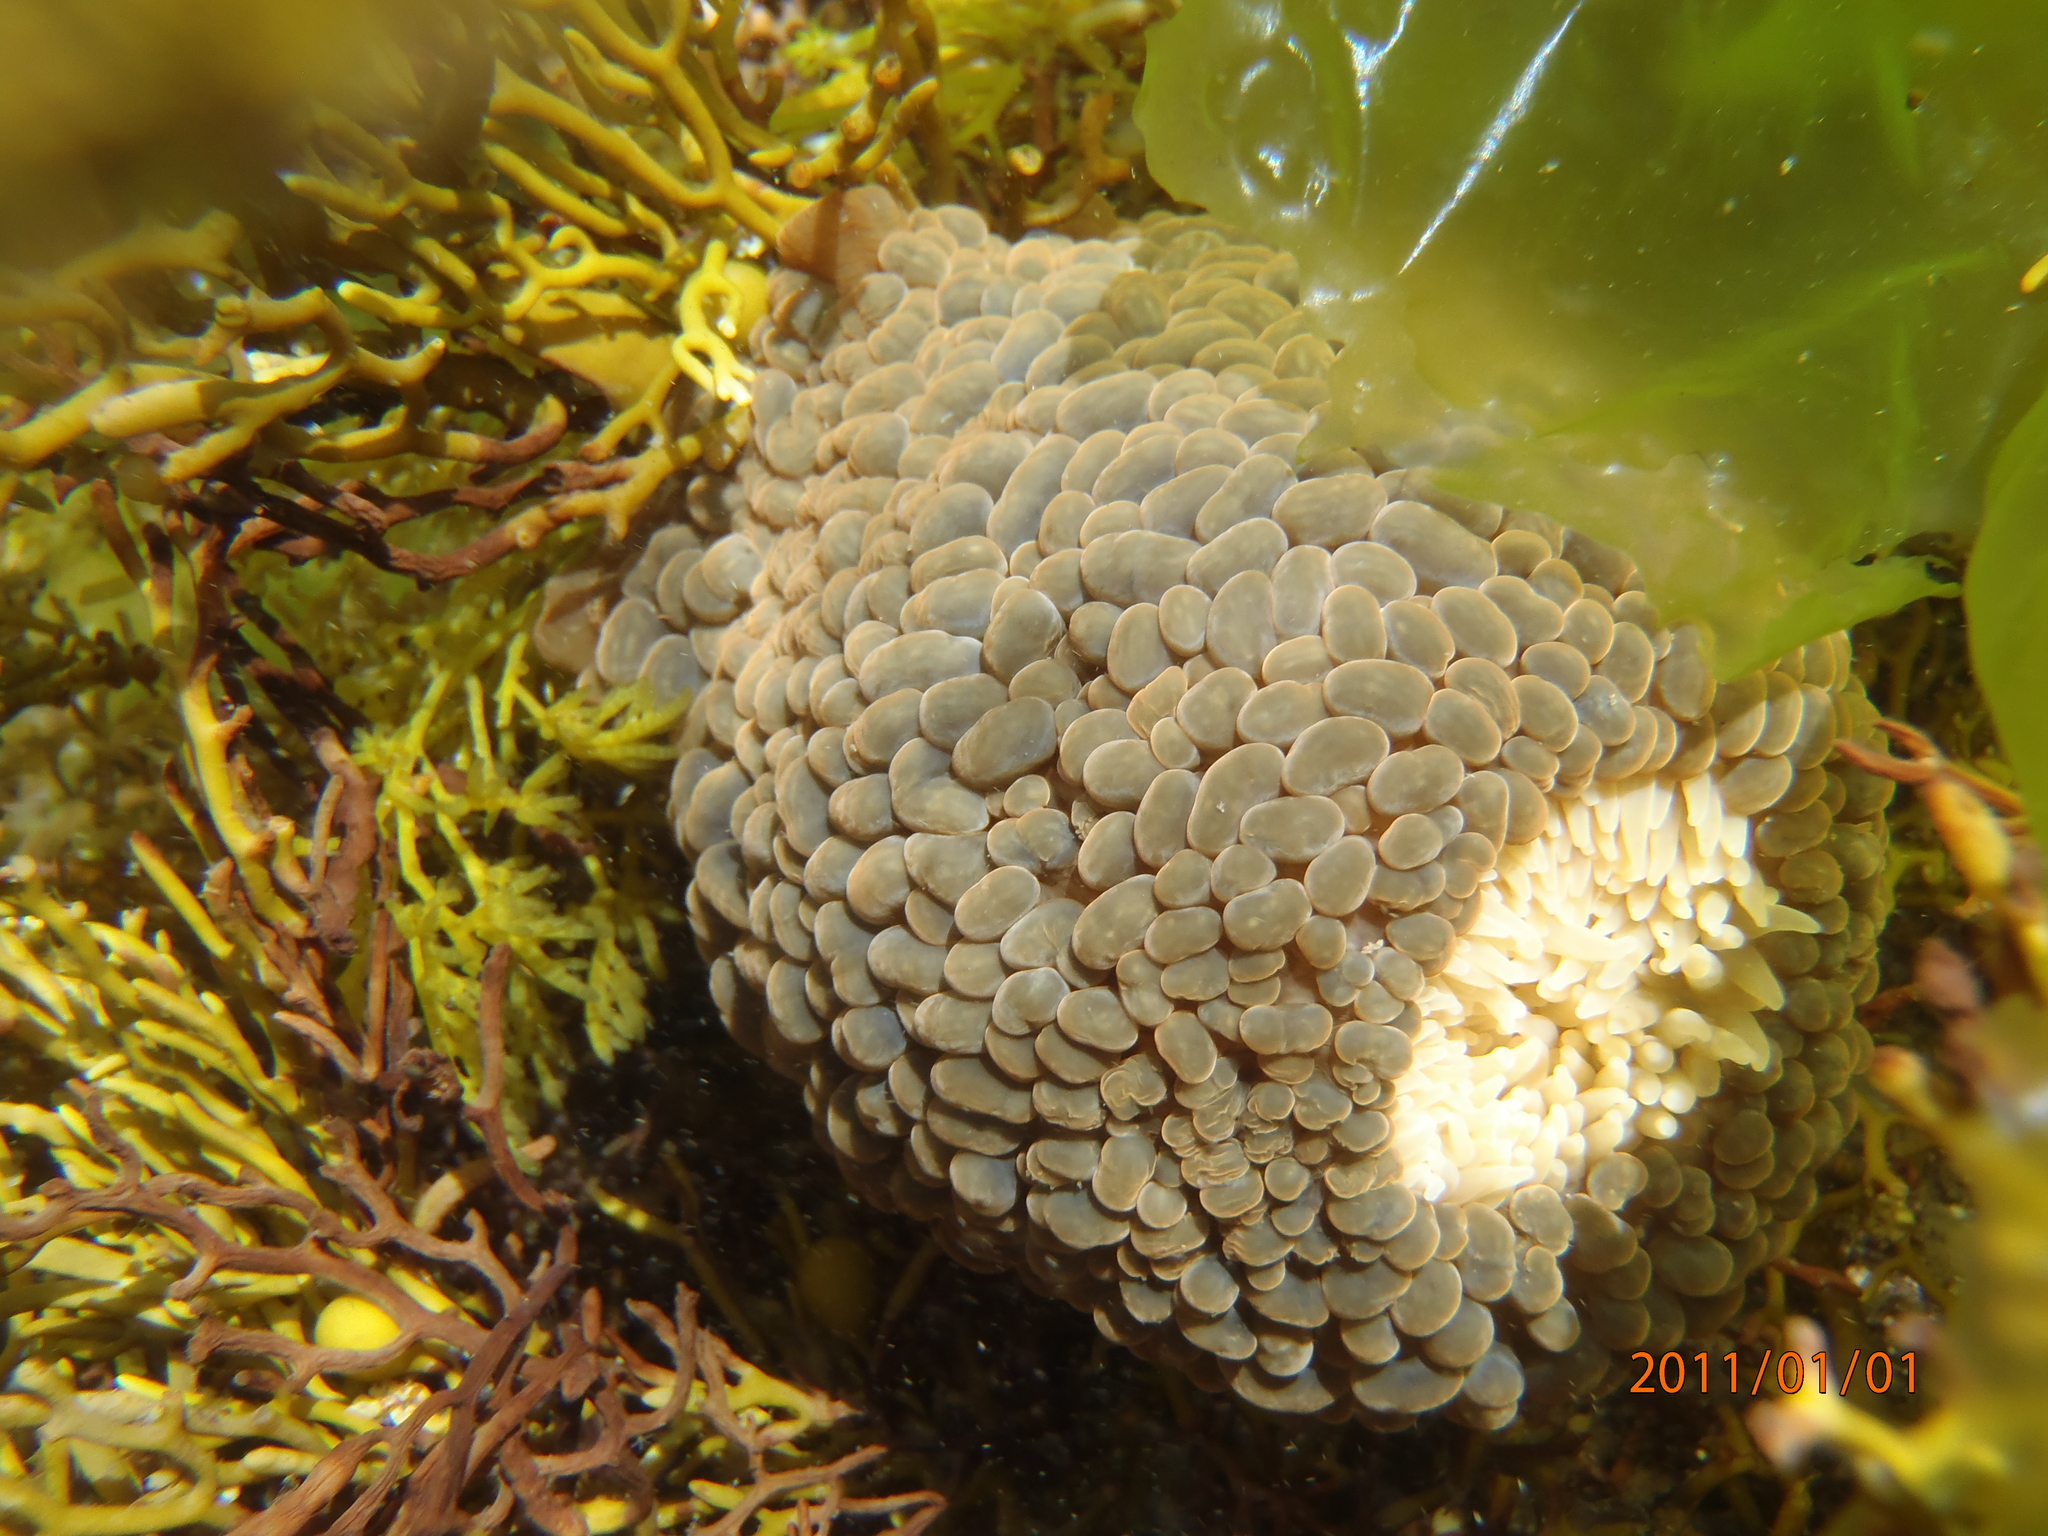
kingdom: Animalia
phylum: Cnidaria
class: Anthozoa
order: Actiniaria
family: Actiniidae
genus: Phlyctenactis
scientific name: Phlyctenactis tuberculosa
